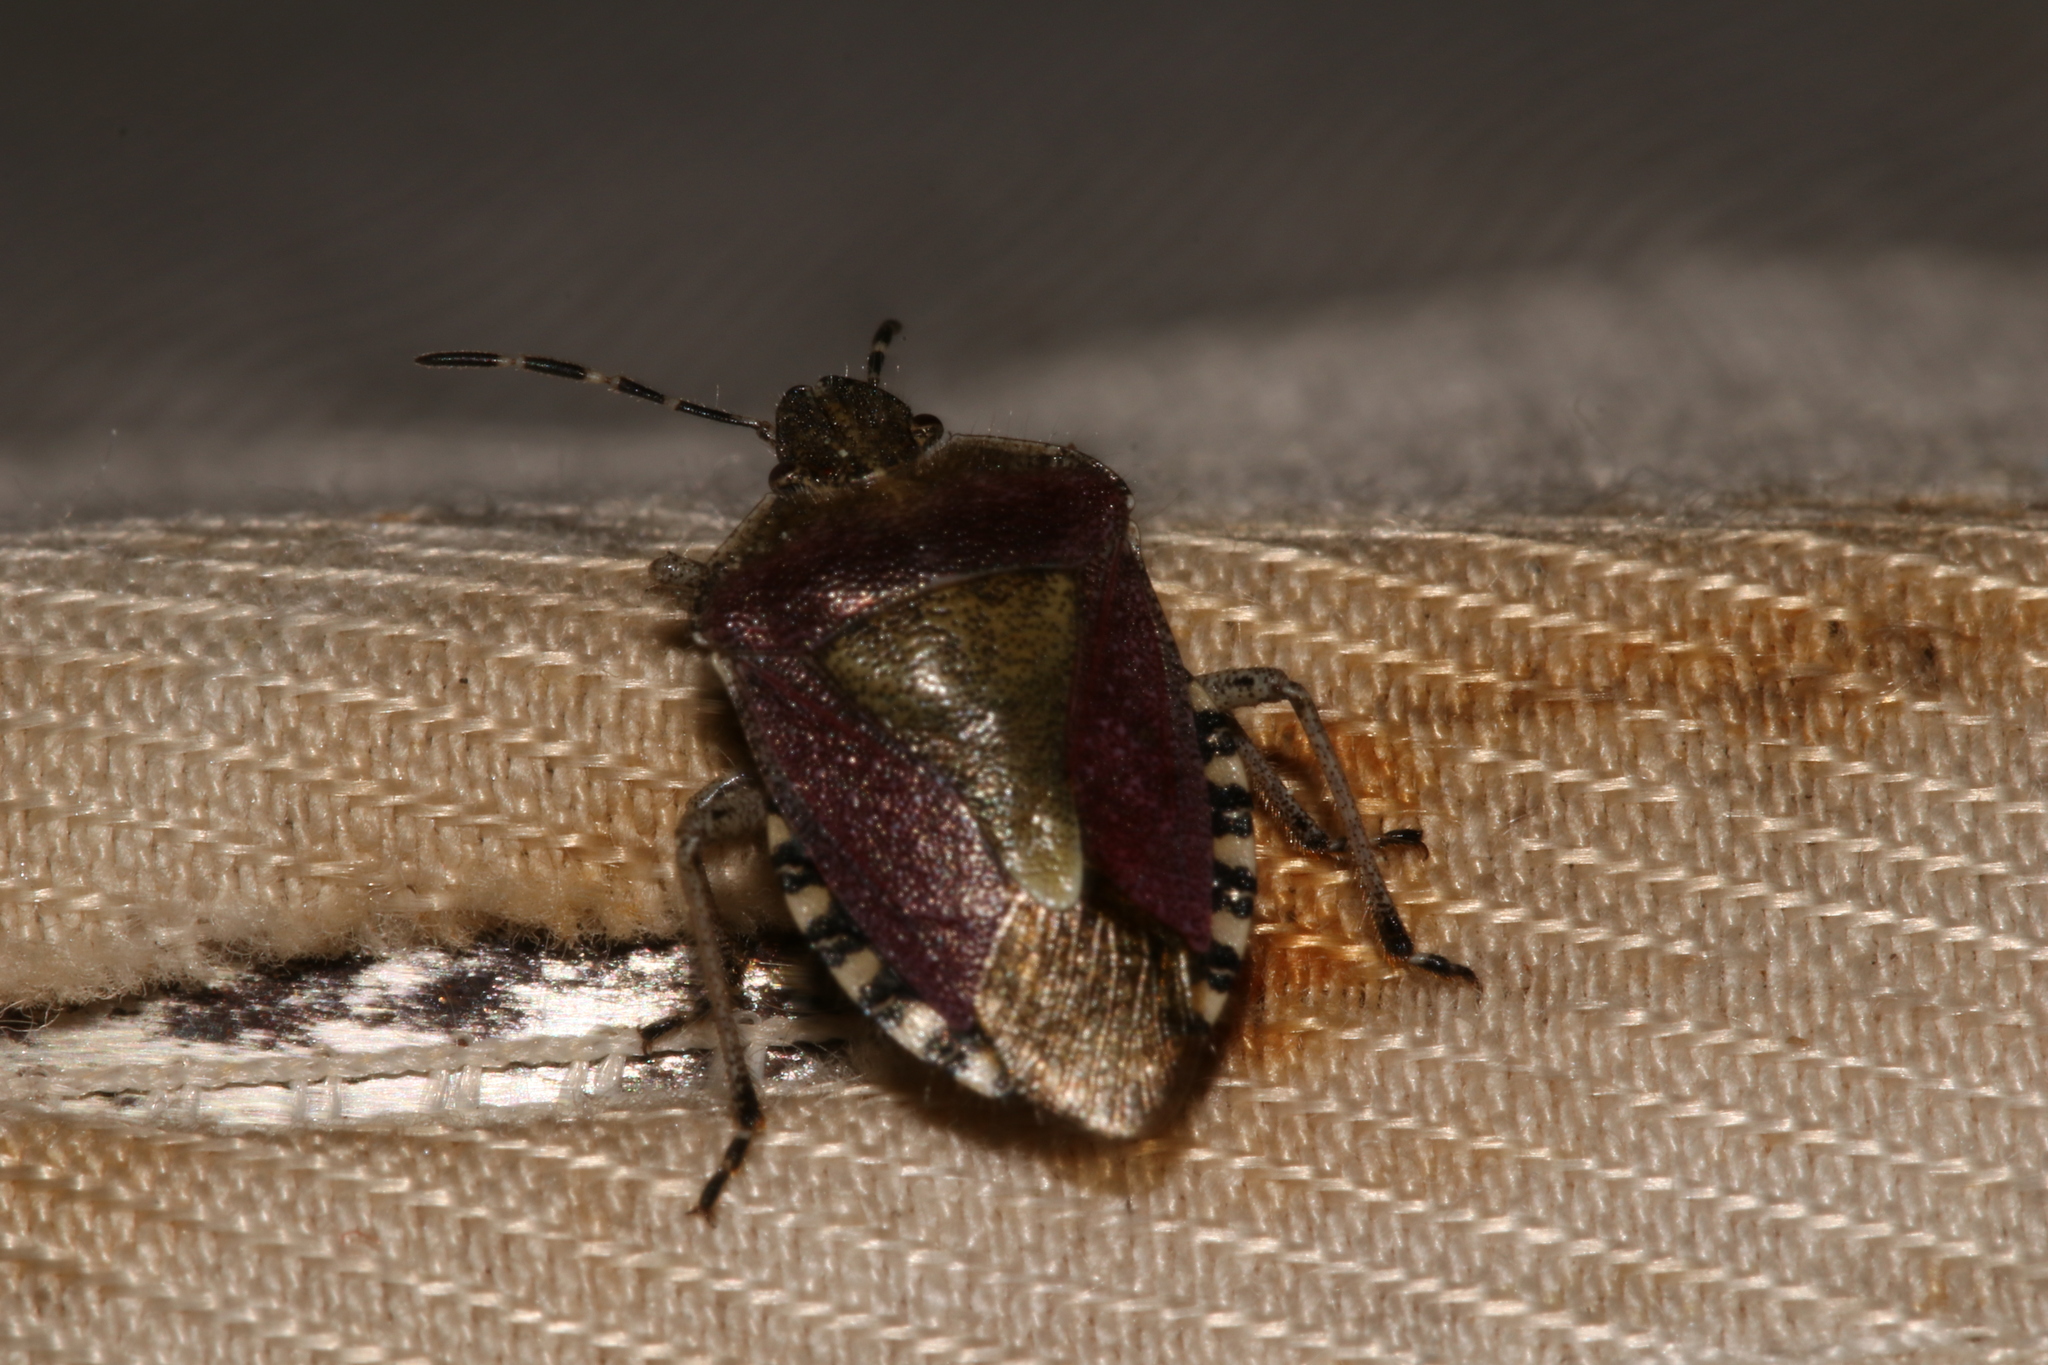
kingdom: Animalia
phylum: Arthropoda
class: Insecta
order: Hemiptera
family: Pentatomidae
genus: Dolycoris
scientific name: Dolycoris baccarum
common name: Sloe bug
